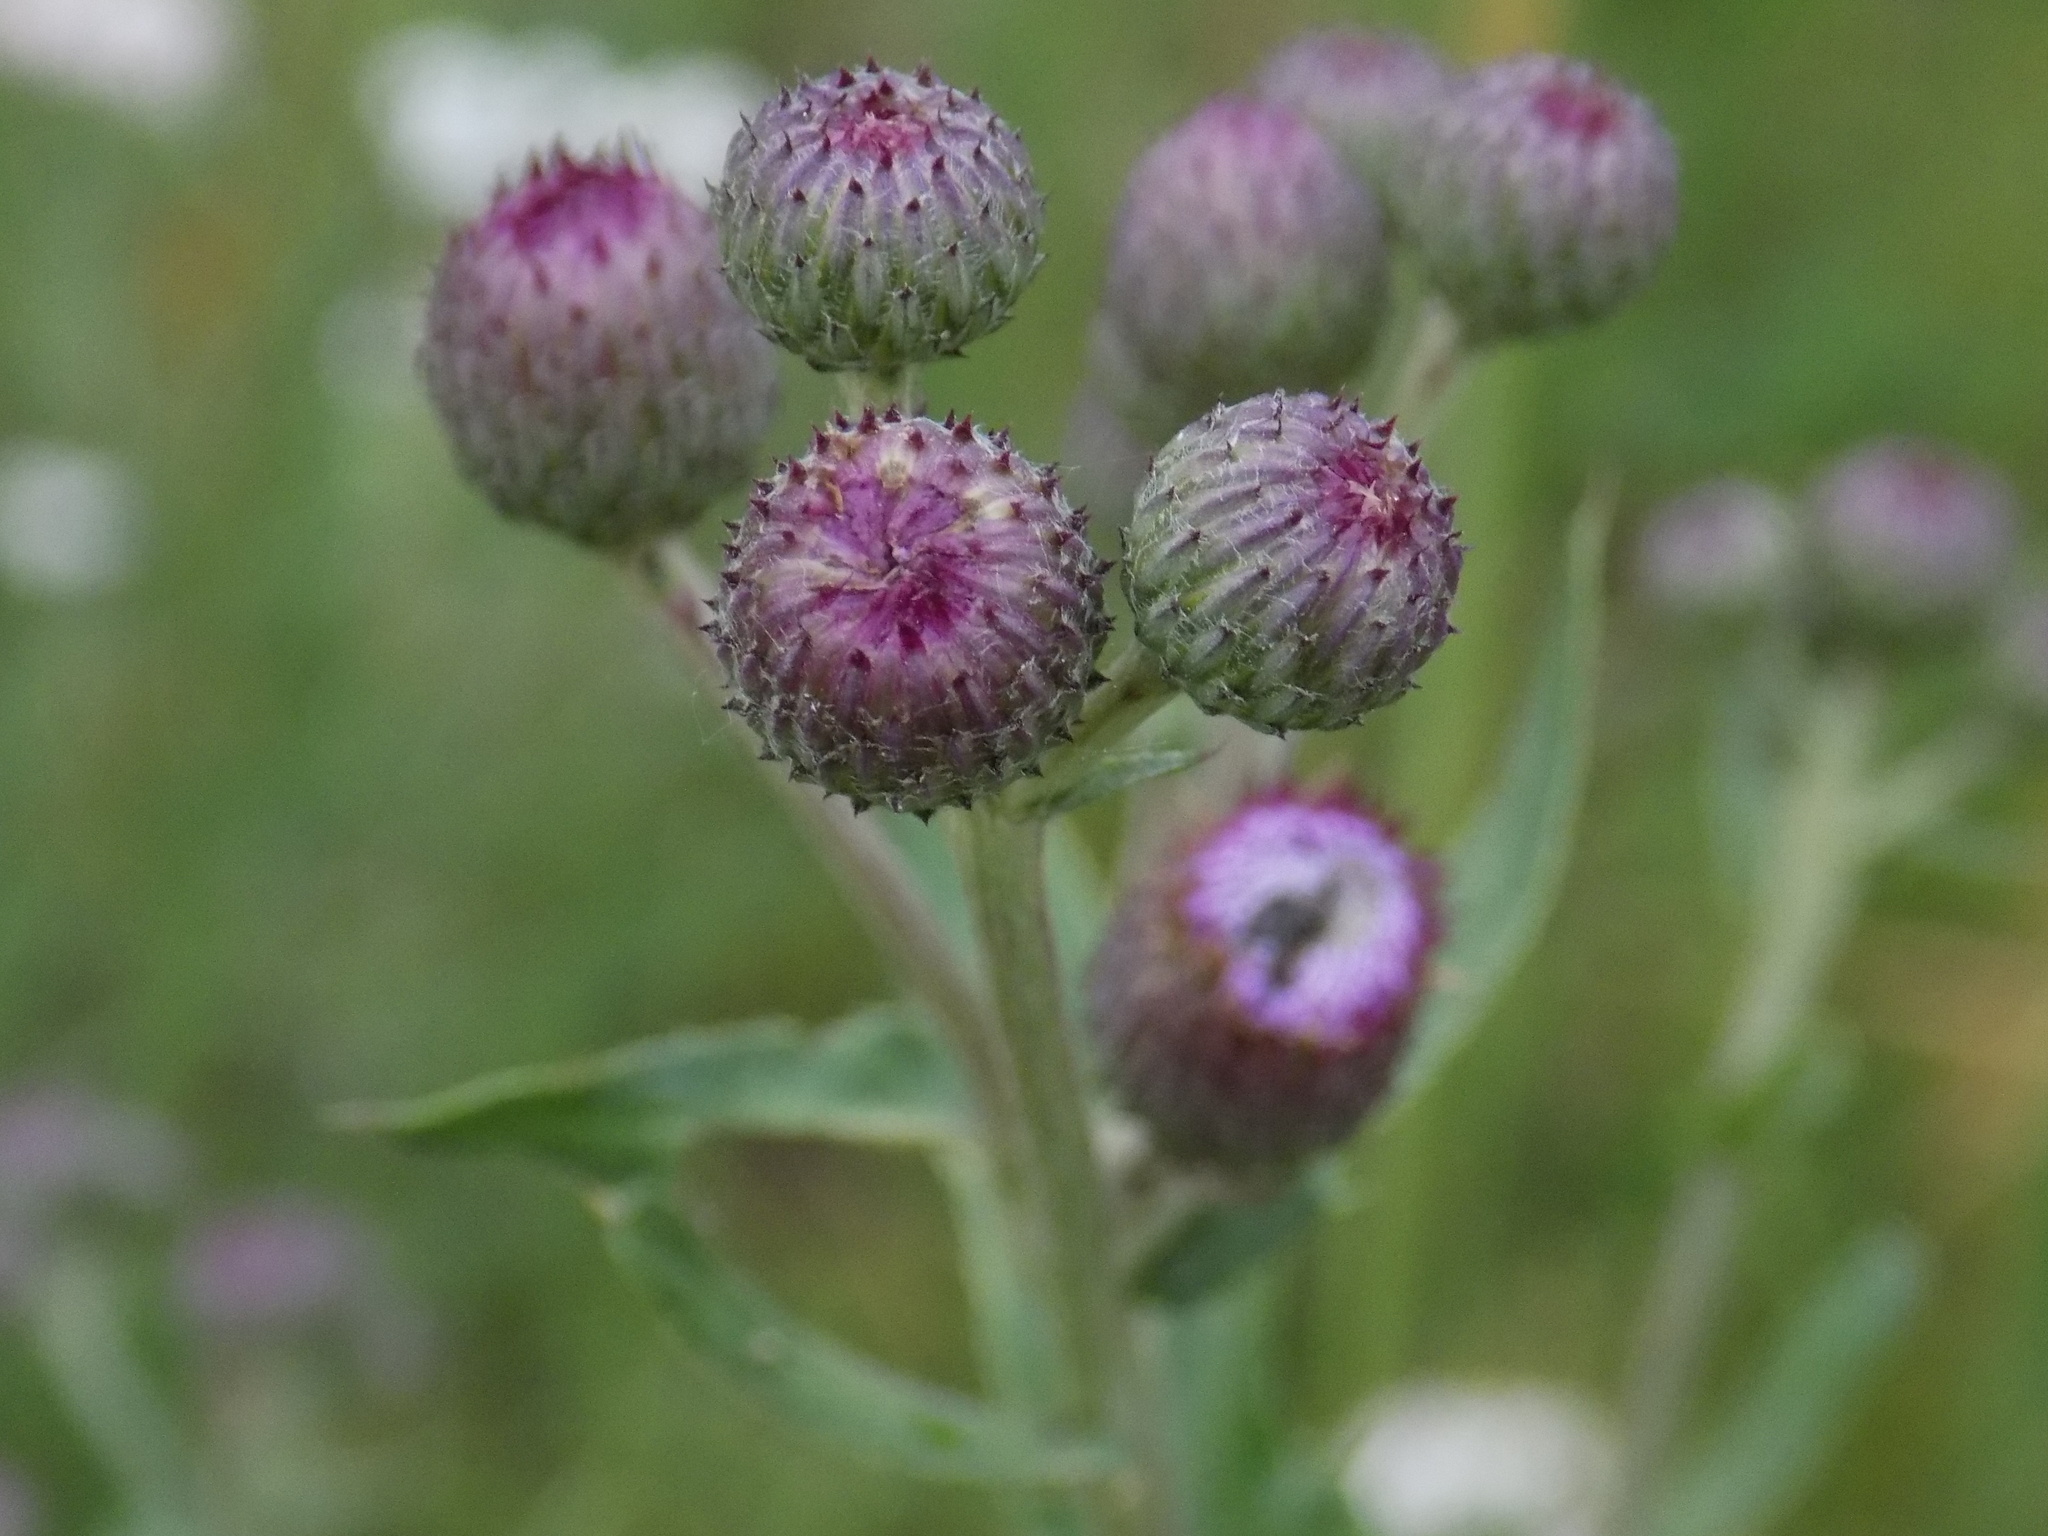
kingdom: Plantae
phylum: Tracheophyta
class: Magnoliopsida
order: Asterales
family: Asteraceae
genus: Cirsium
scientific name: Cirsium arvense
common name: Creeping thistle
